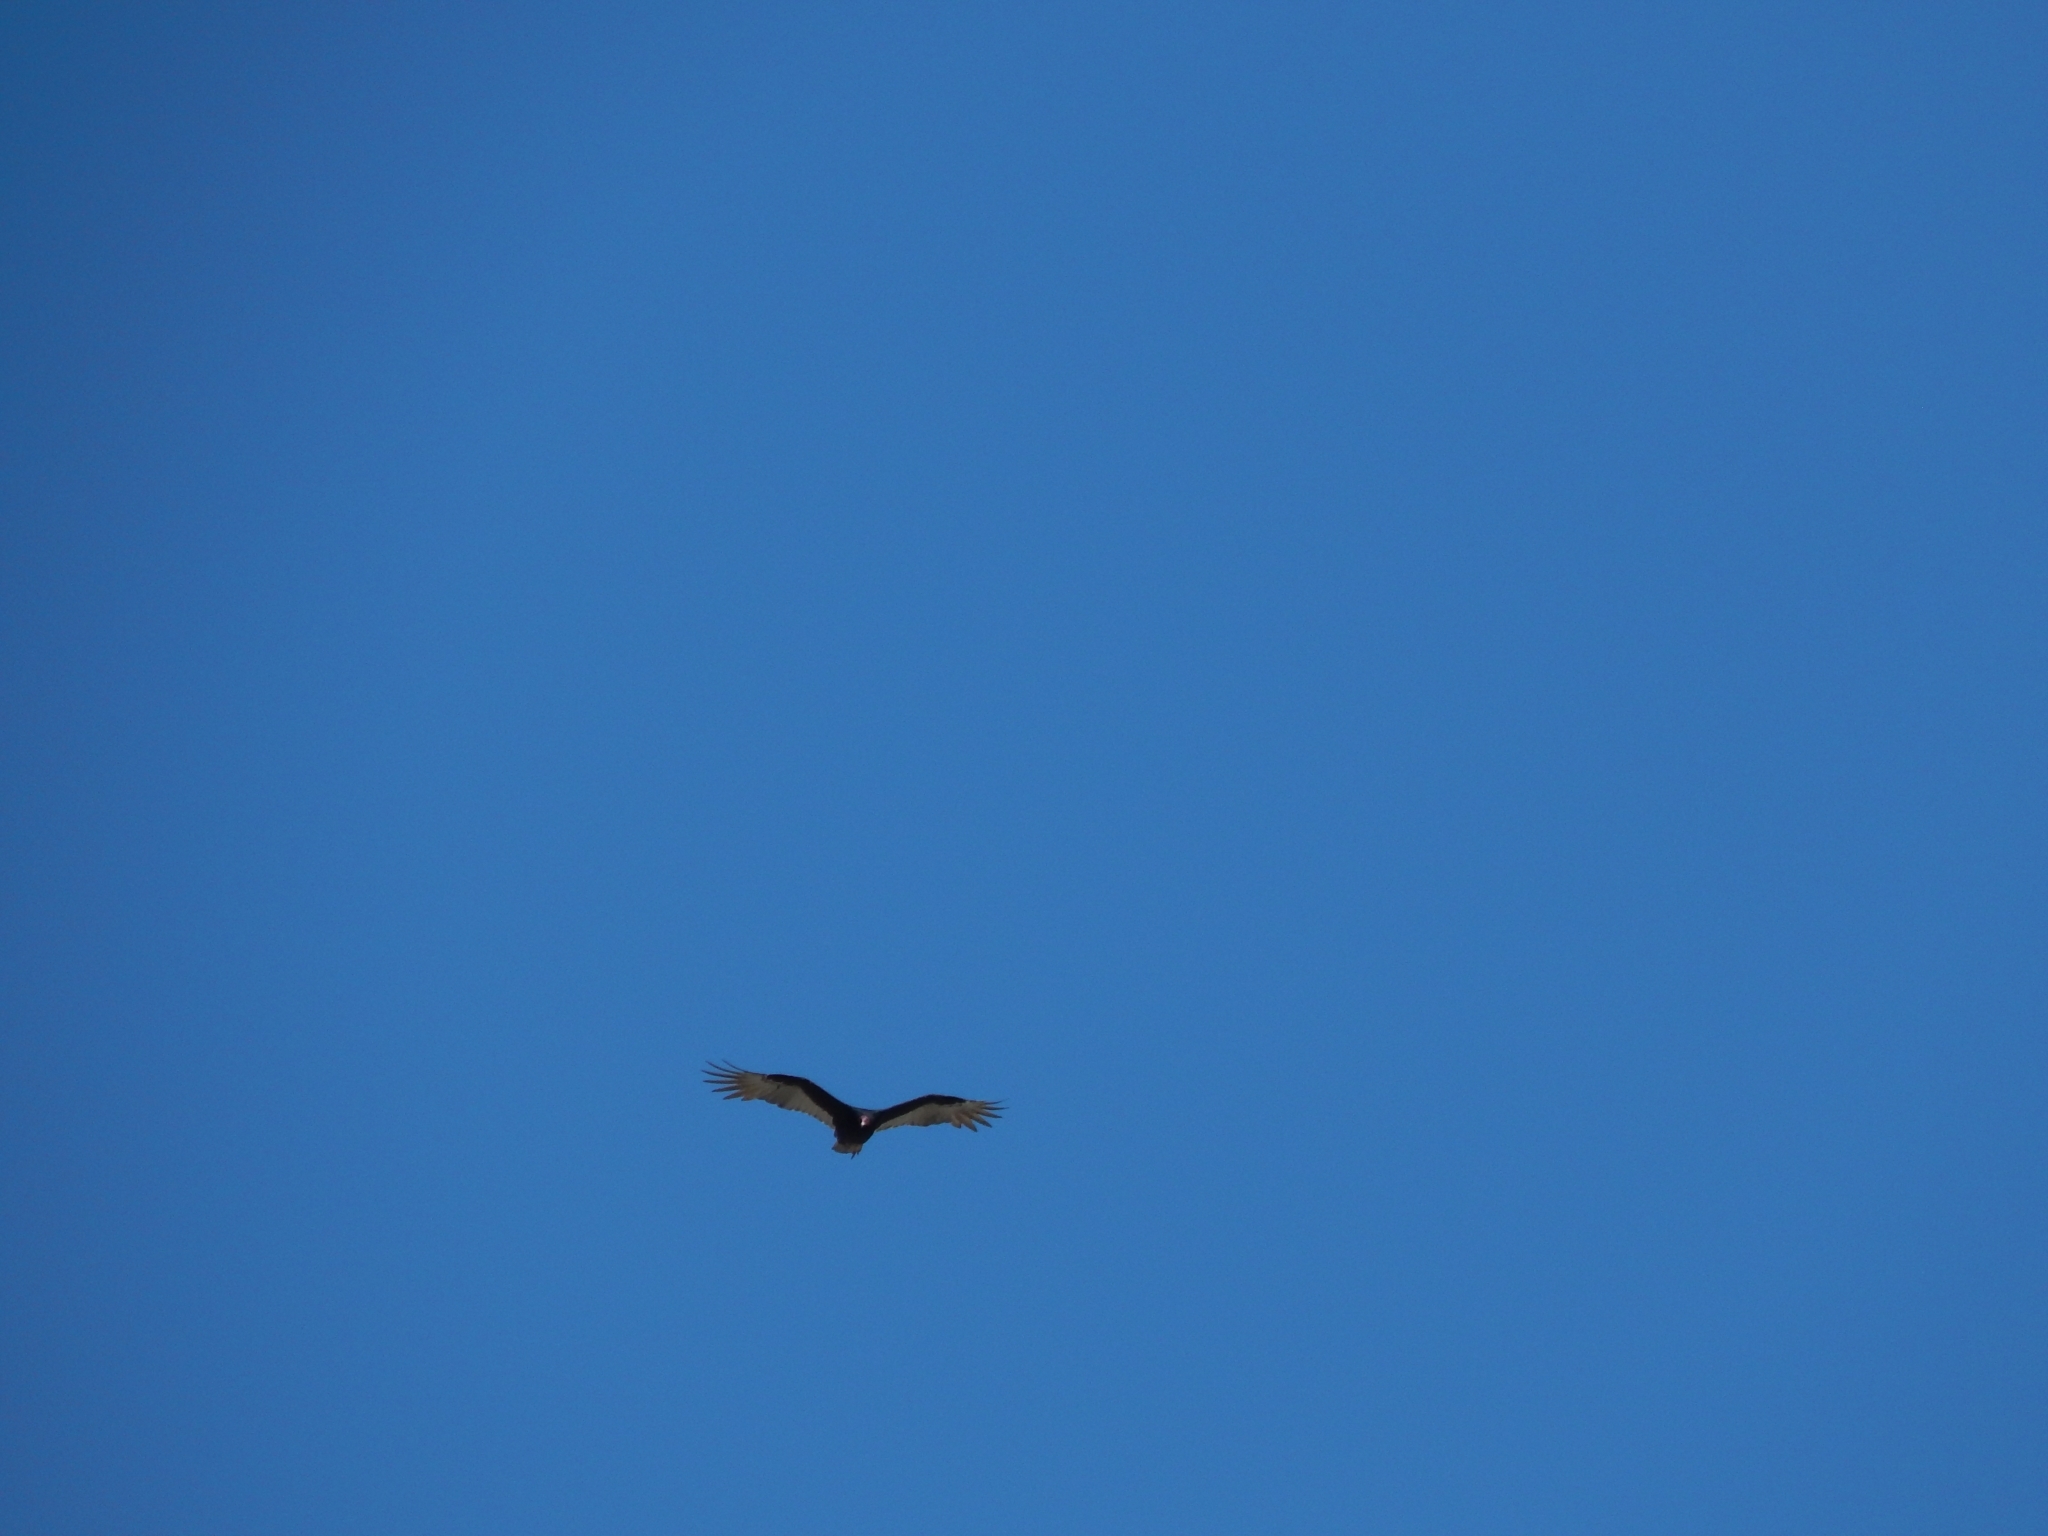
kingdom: Animalia
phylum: Chordata
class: Aves
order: Accipitriformes
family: Cathartidae
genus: Cathartes
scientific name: Cathartes aura
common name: Turkey vulture
